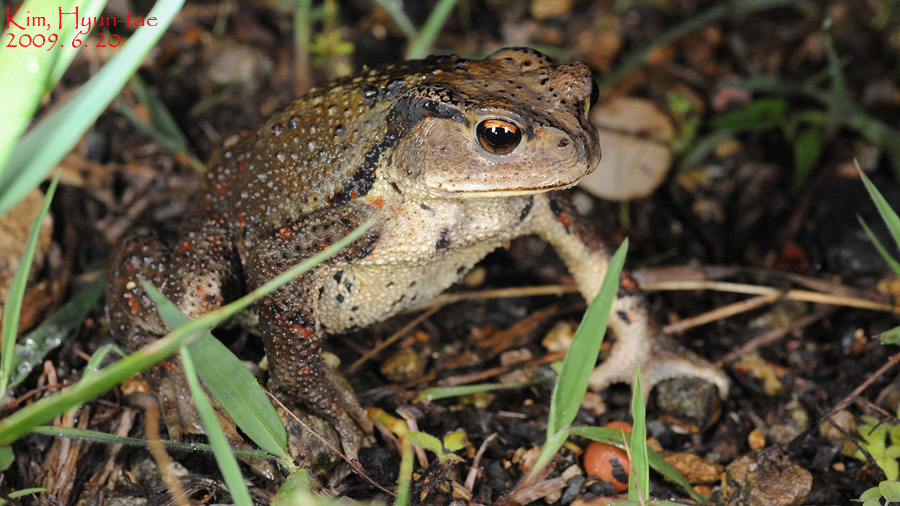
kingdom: Animalia
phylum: Chordata
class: Amphibia
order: Anura
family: Bufonidae
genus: Bufo
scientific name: Bufo gargarizans
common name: Asiatic toad
